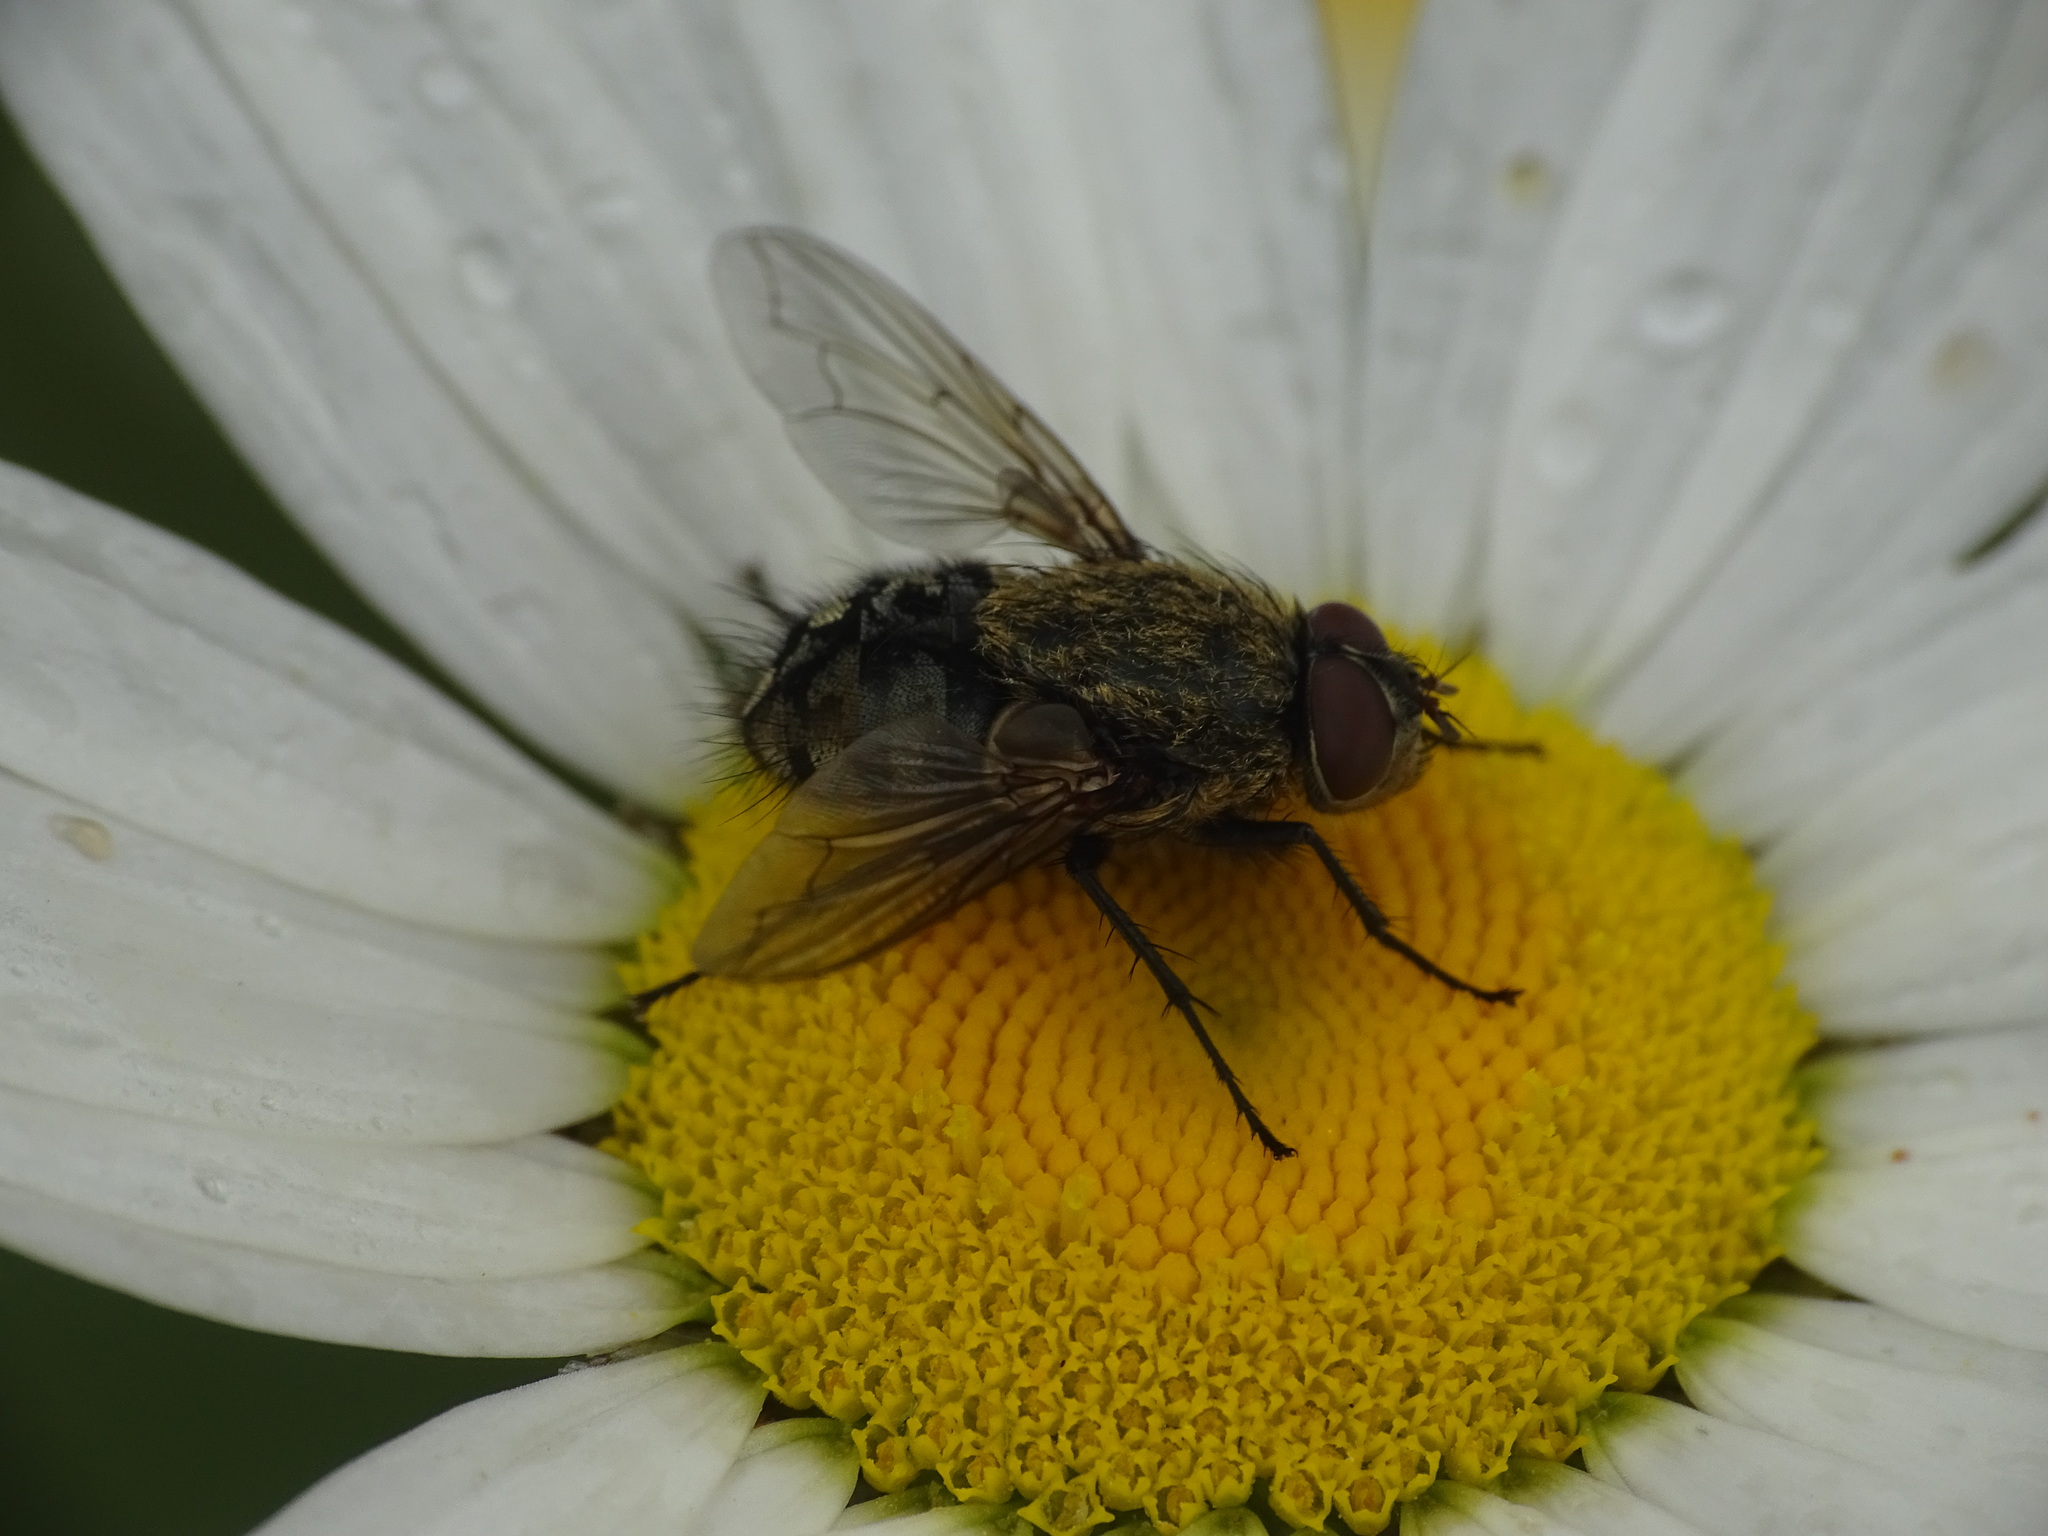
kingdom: Animalia
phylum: Arthropoda
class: Insecta
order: Diptera
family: Polleniidae
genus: Pollenia
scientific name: Pollenia
